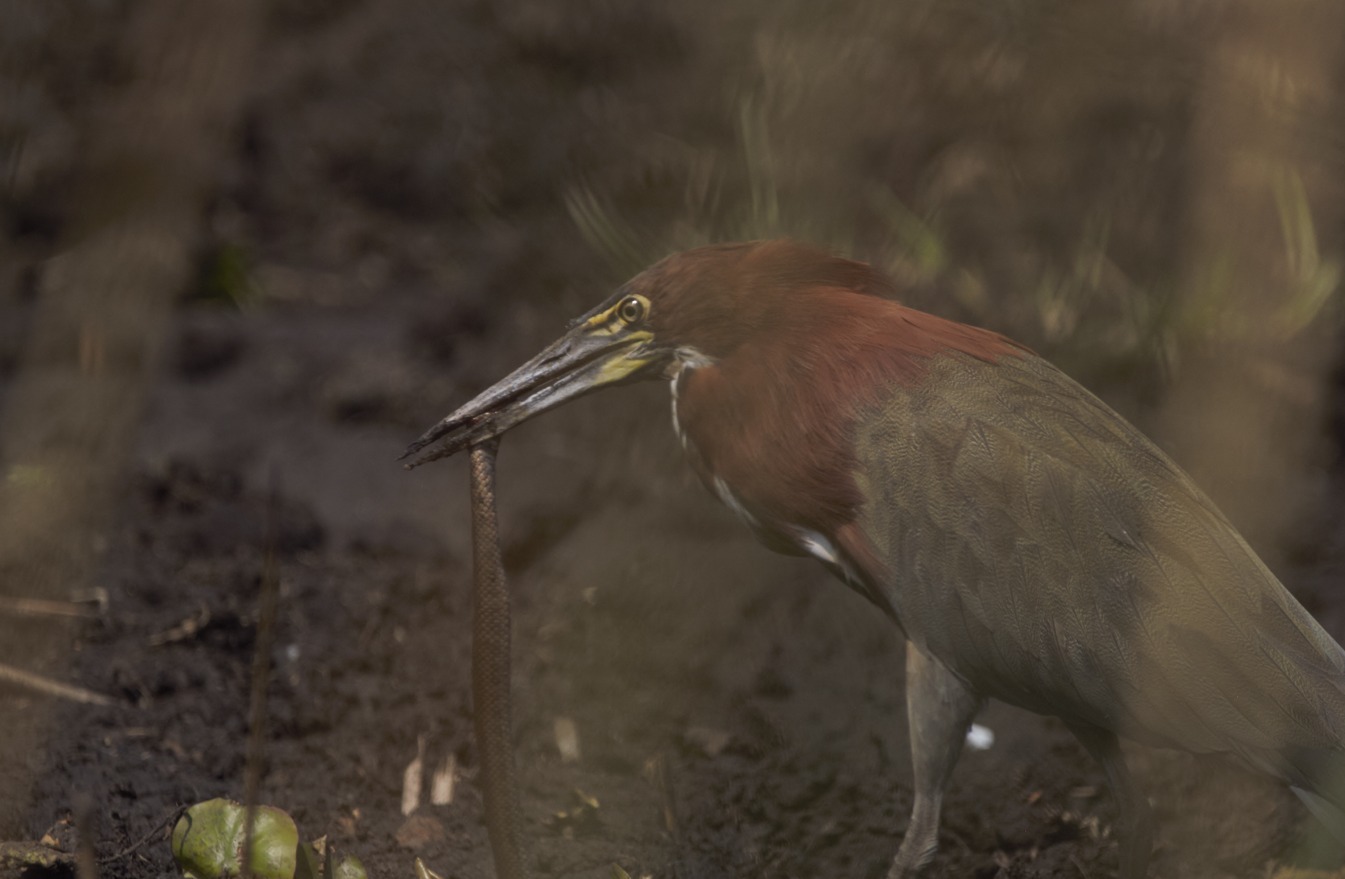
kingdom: Animalia
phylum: Chordata
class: Aves
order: Pelecaniformes
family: Ardeidae
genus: Tigrisoma
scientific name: Tigrisoma lineatum
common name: Rufescent tiger-heron
